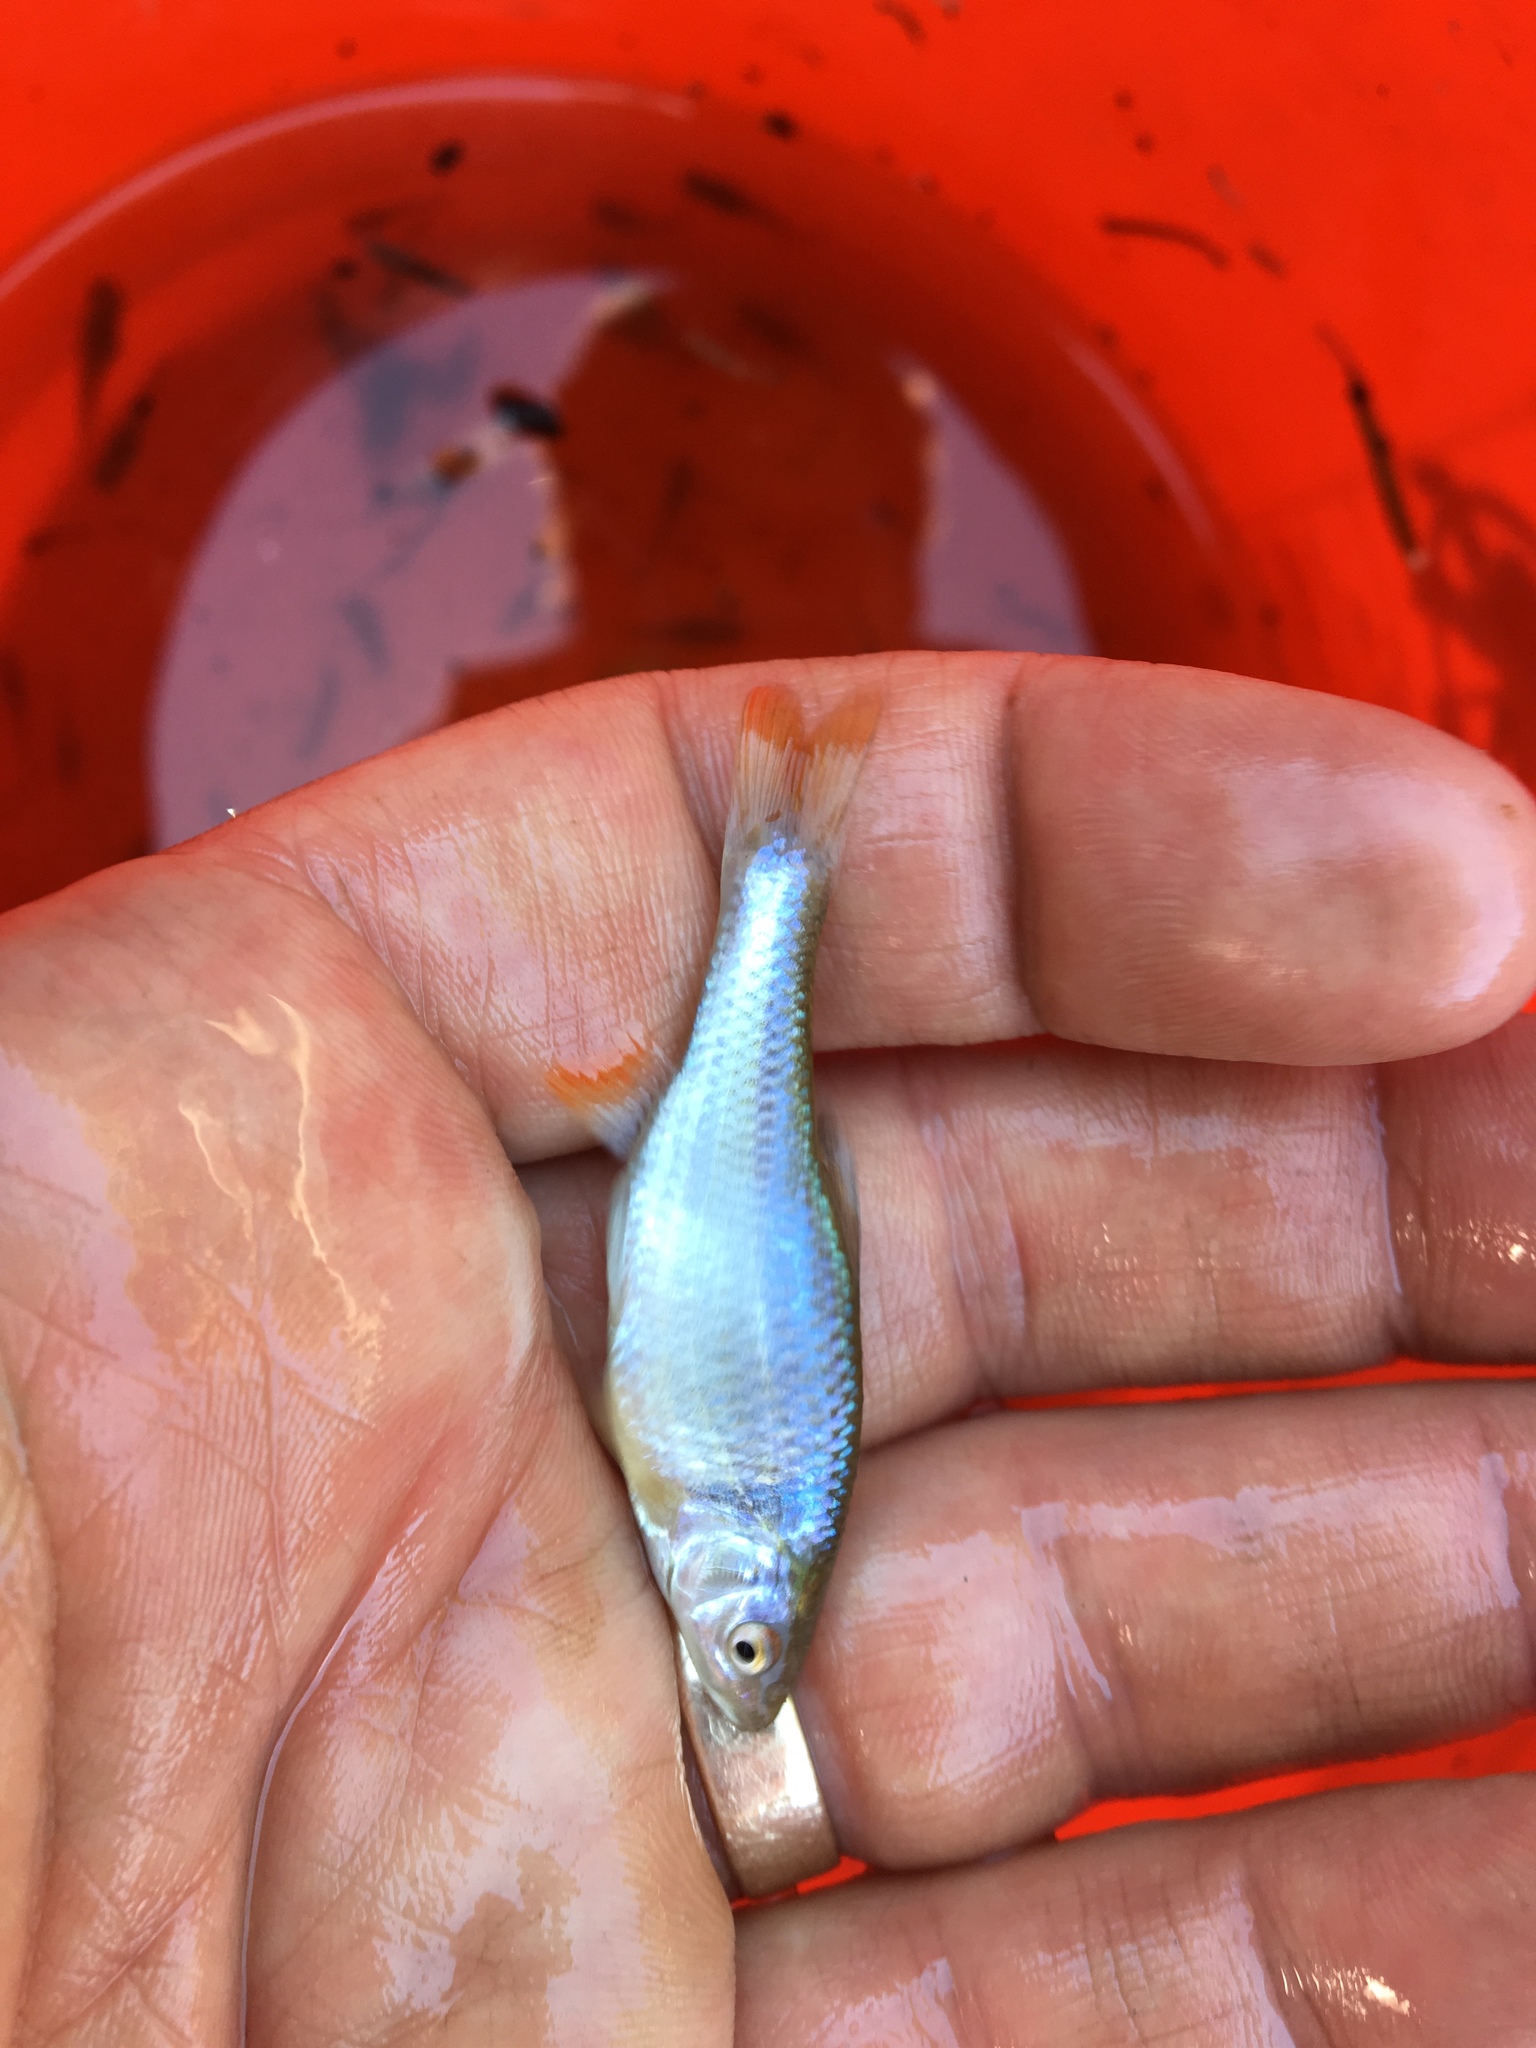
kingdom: Animalia
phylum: Chordata
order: Cypriniformes
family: Cyprinidae
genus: Cyprinella
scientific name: Cyprinella lutrensis
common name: Red shiner
